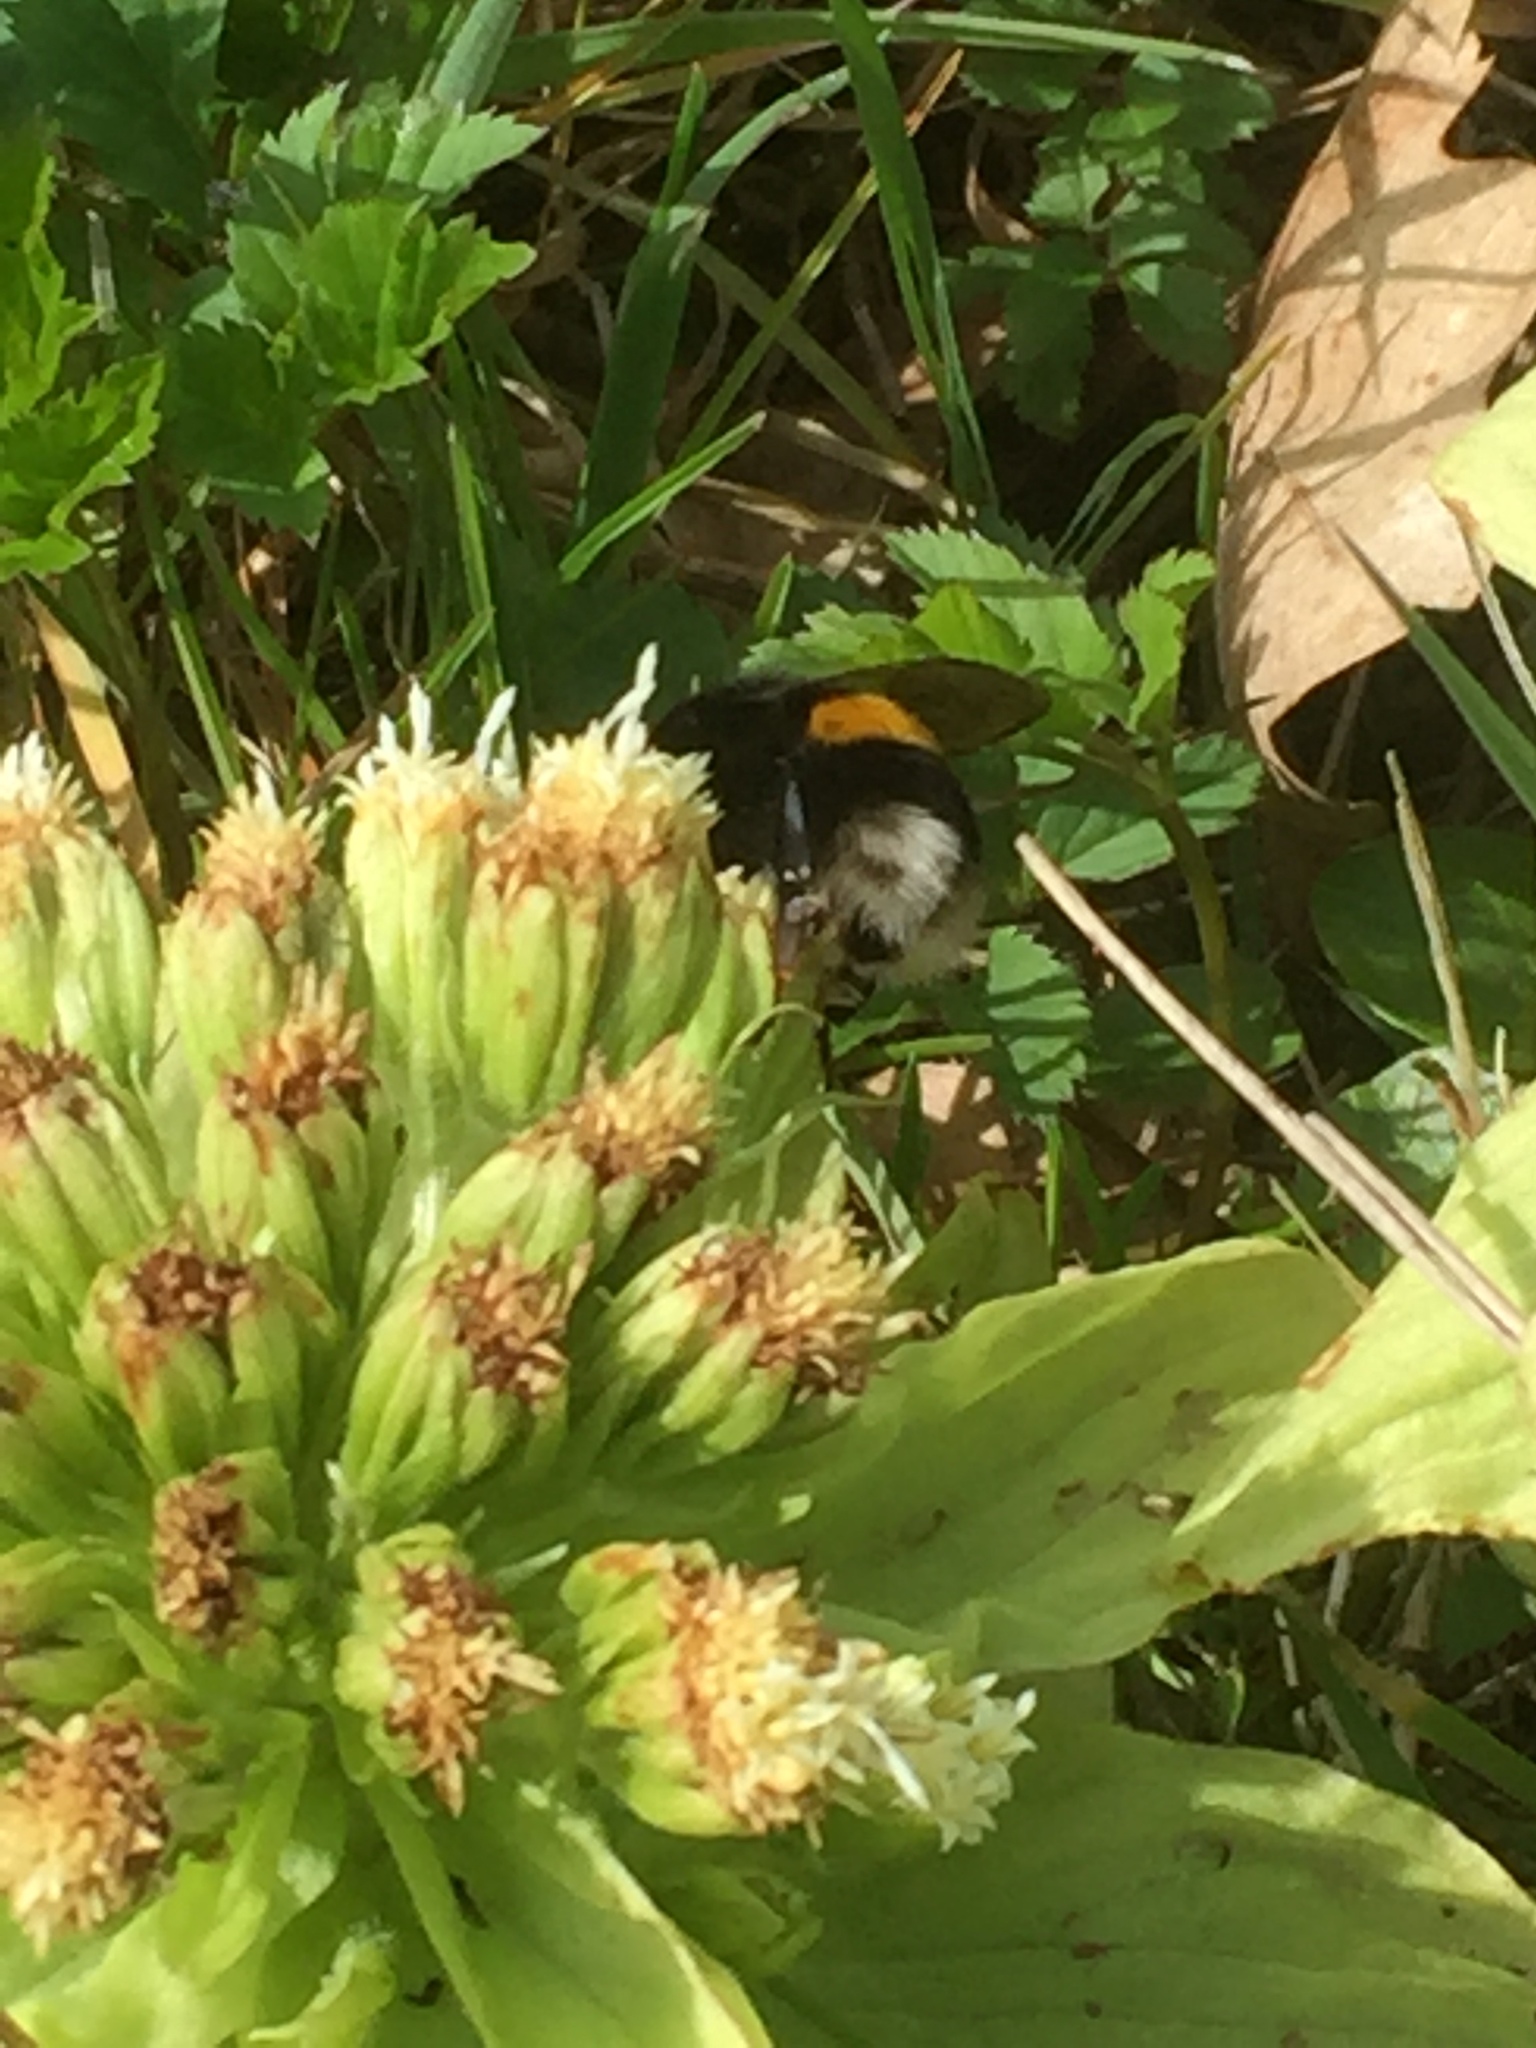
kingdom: Plantae
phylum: Tracheophyta
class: Magnoliopsida
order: Asterales
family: Asteraceae
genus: Petasites
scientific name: Petasites japonicus
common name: Giant butterbur
